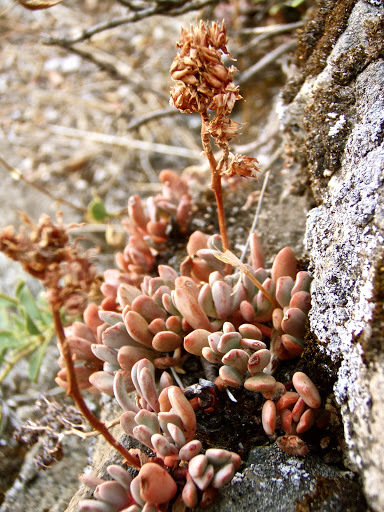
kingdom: Plantae
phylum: Tracheophyta
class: Magnoliopsida
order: Saxifragales
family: Crassulaceae
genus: Sedum
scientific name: Sedum obtusatum
